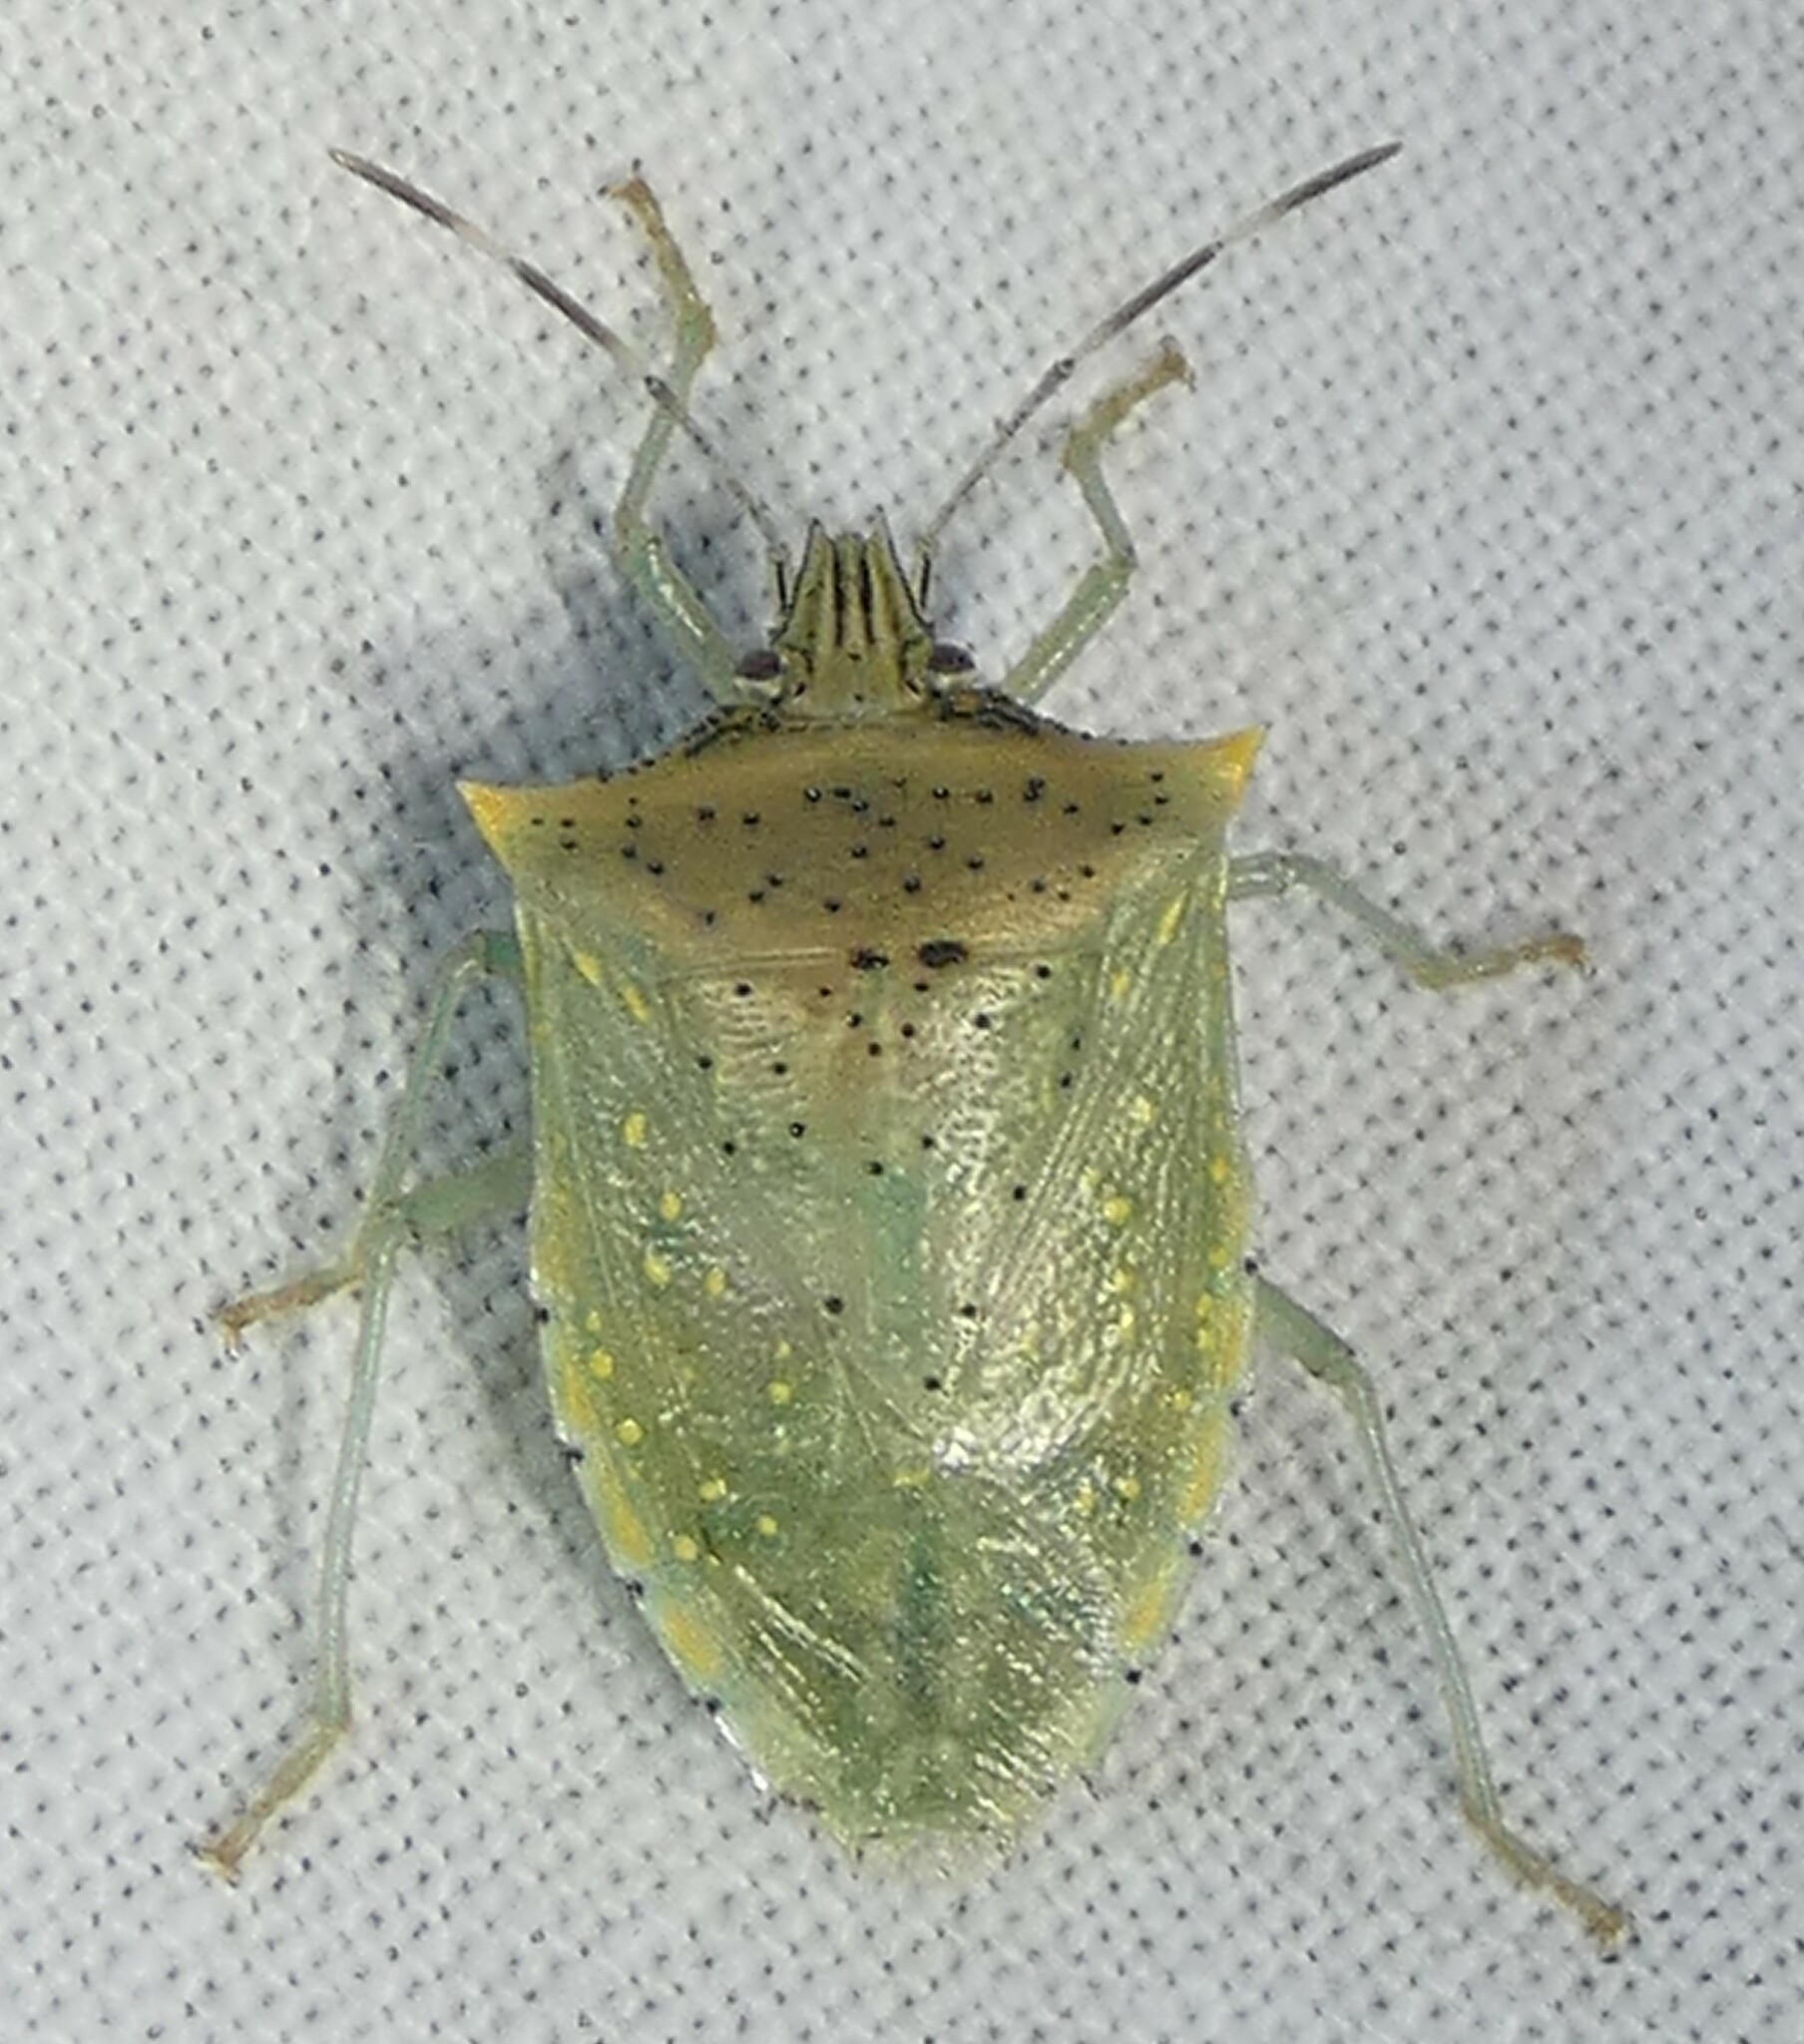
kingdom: Animalia
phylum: Arthropoda
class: Insecta
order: Hemiptera
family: Pentatomidae
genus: Arvelius
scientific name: Arvelius albopunctatus
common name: Tomato stink bug
